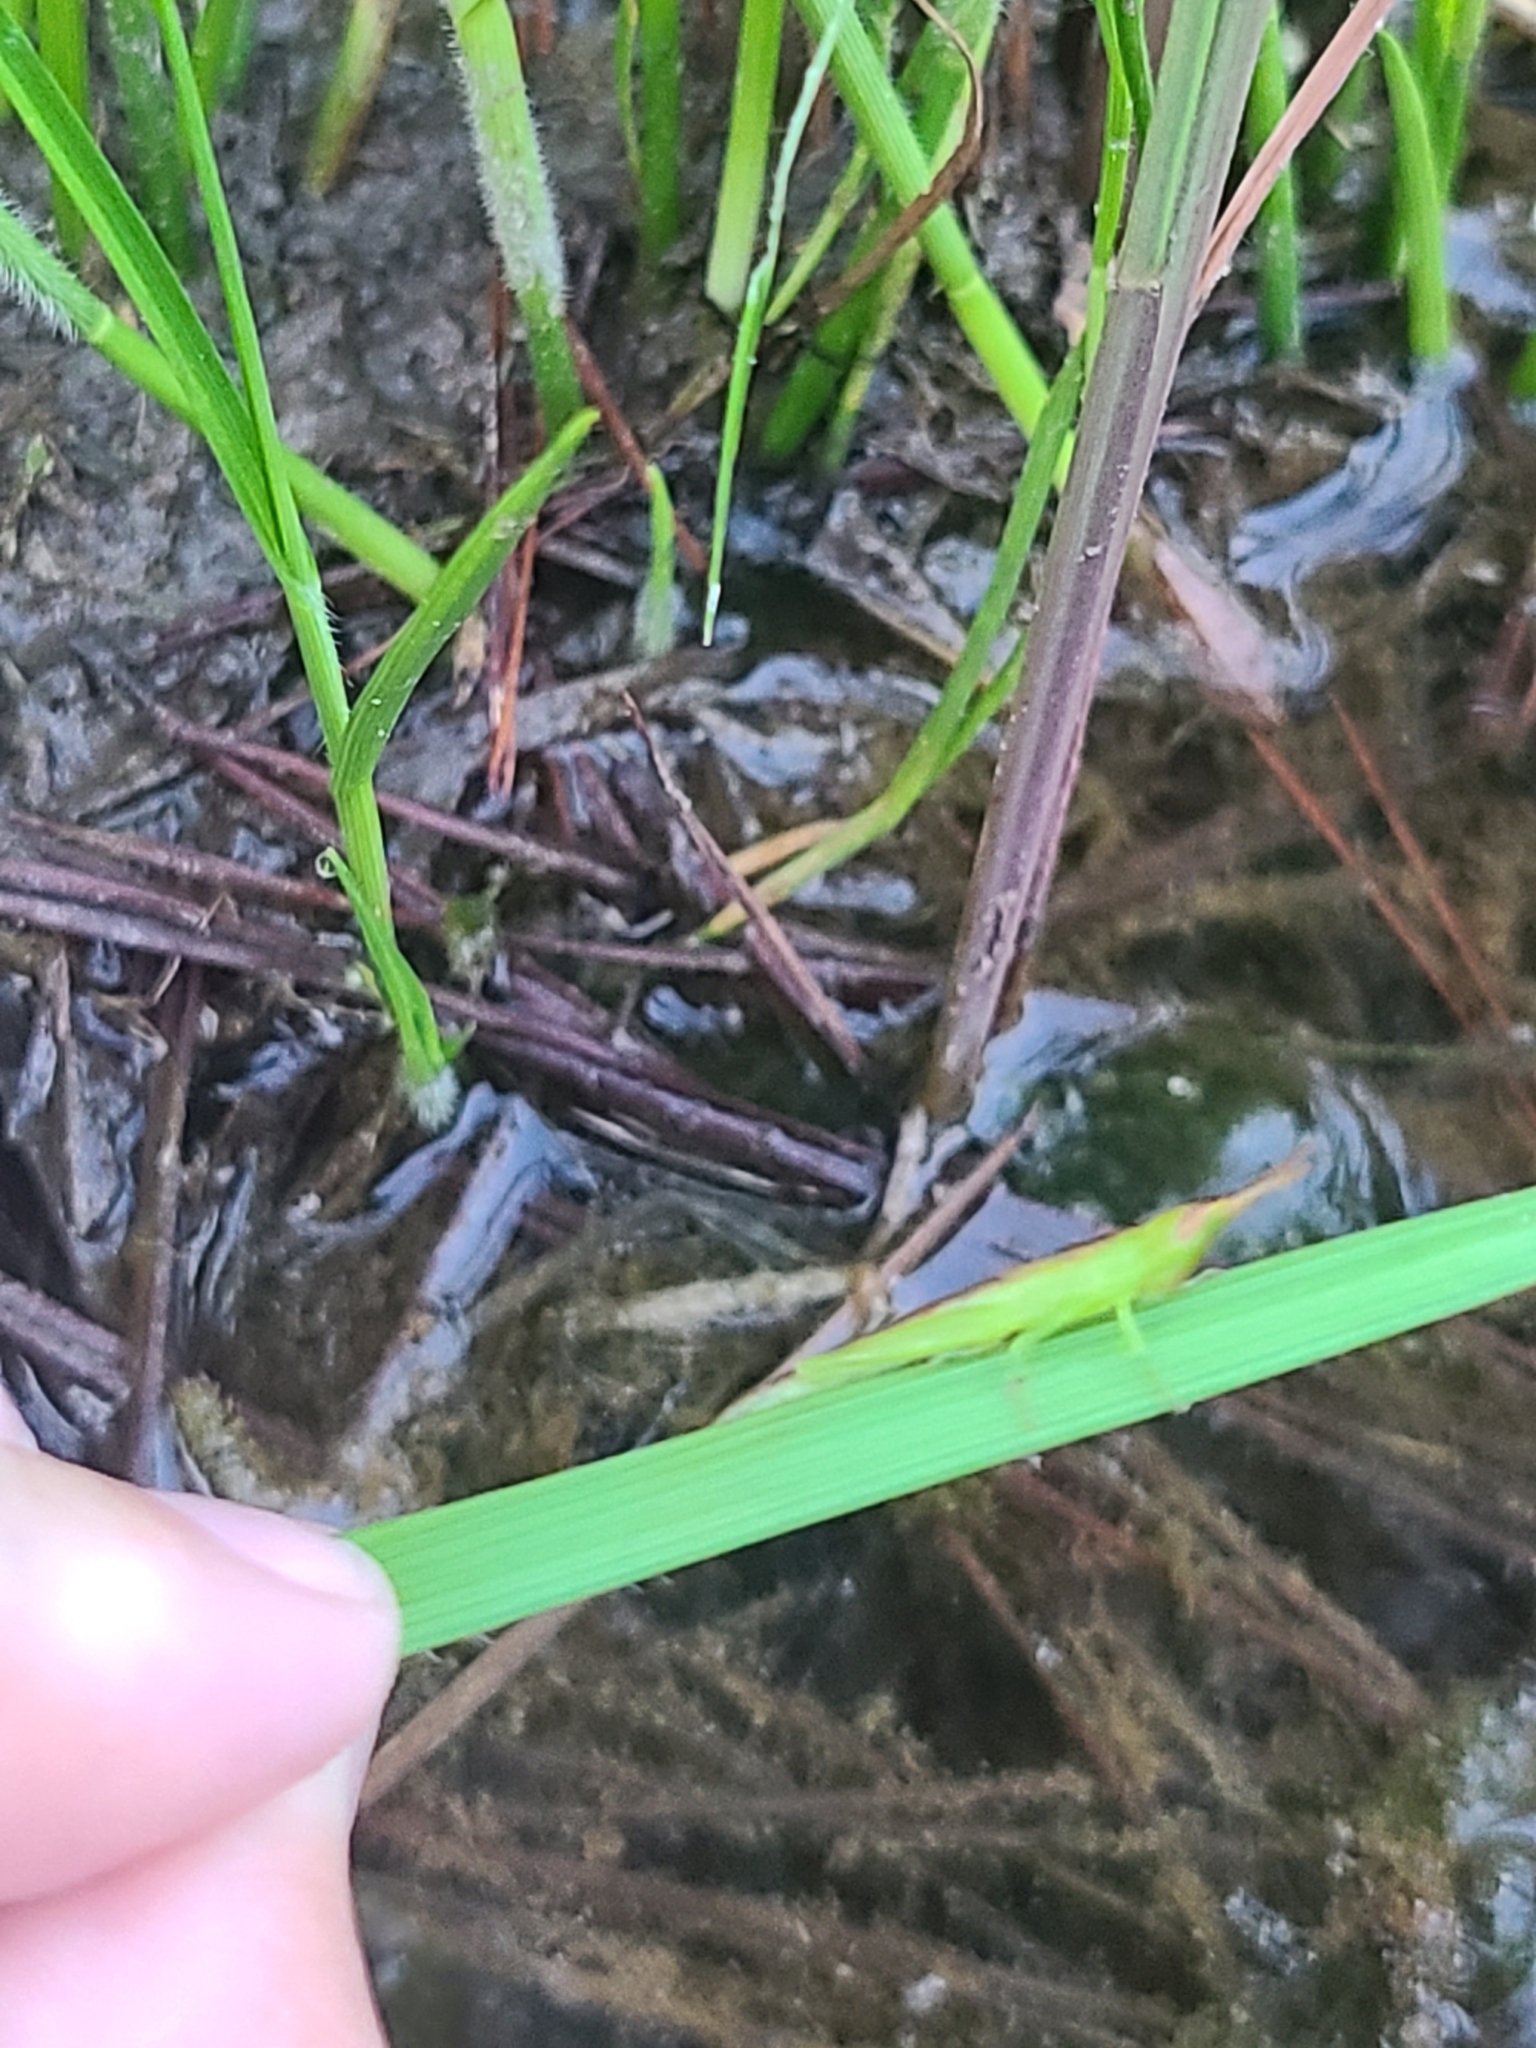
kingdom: Animalia
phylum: Arthropoda
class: Insecta
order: Orthoptera
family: Acrididae
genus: Leptysma
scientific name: Leptysma marginicollis
